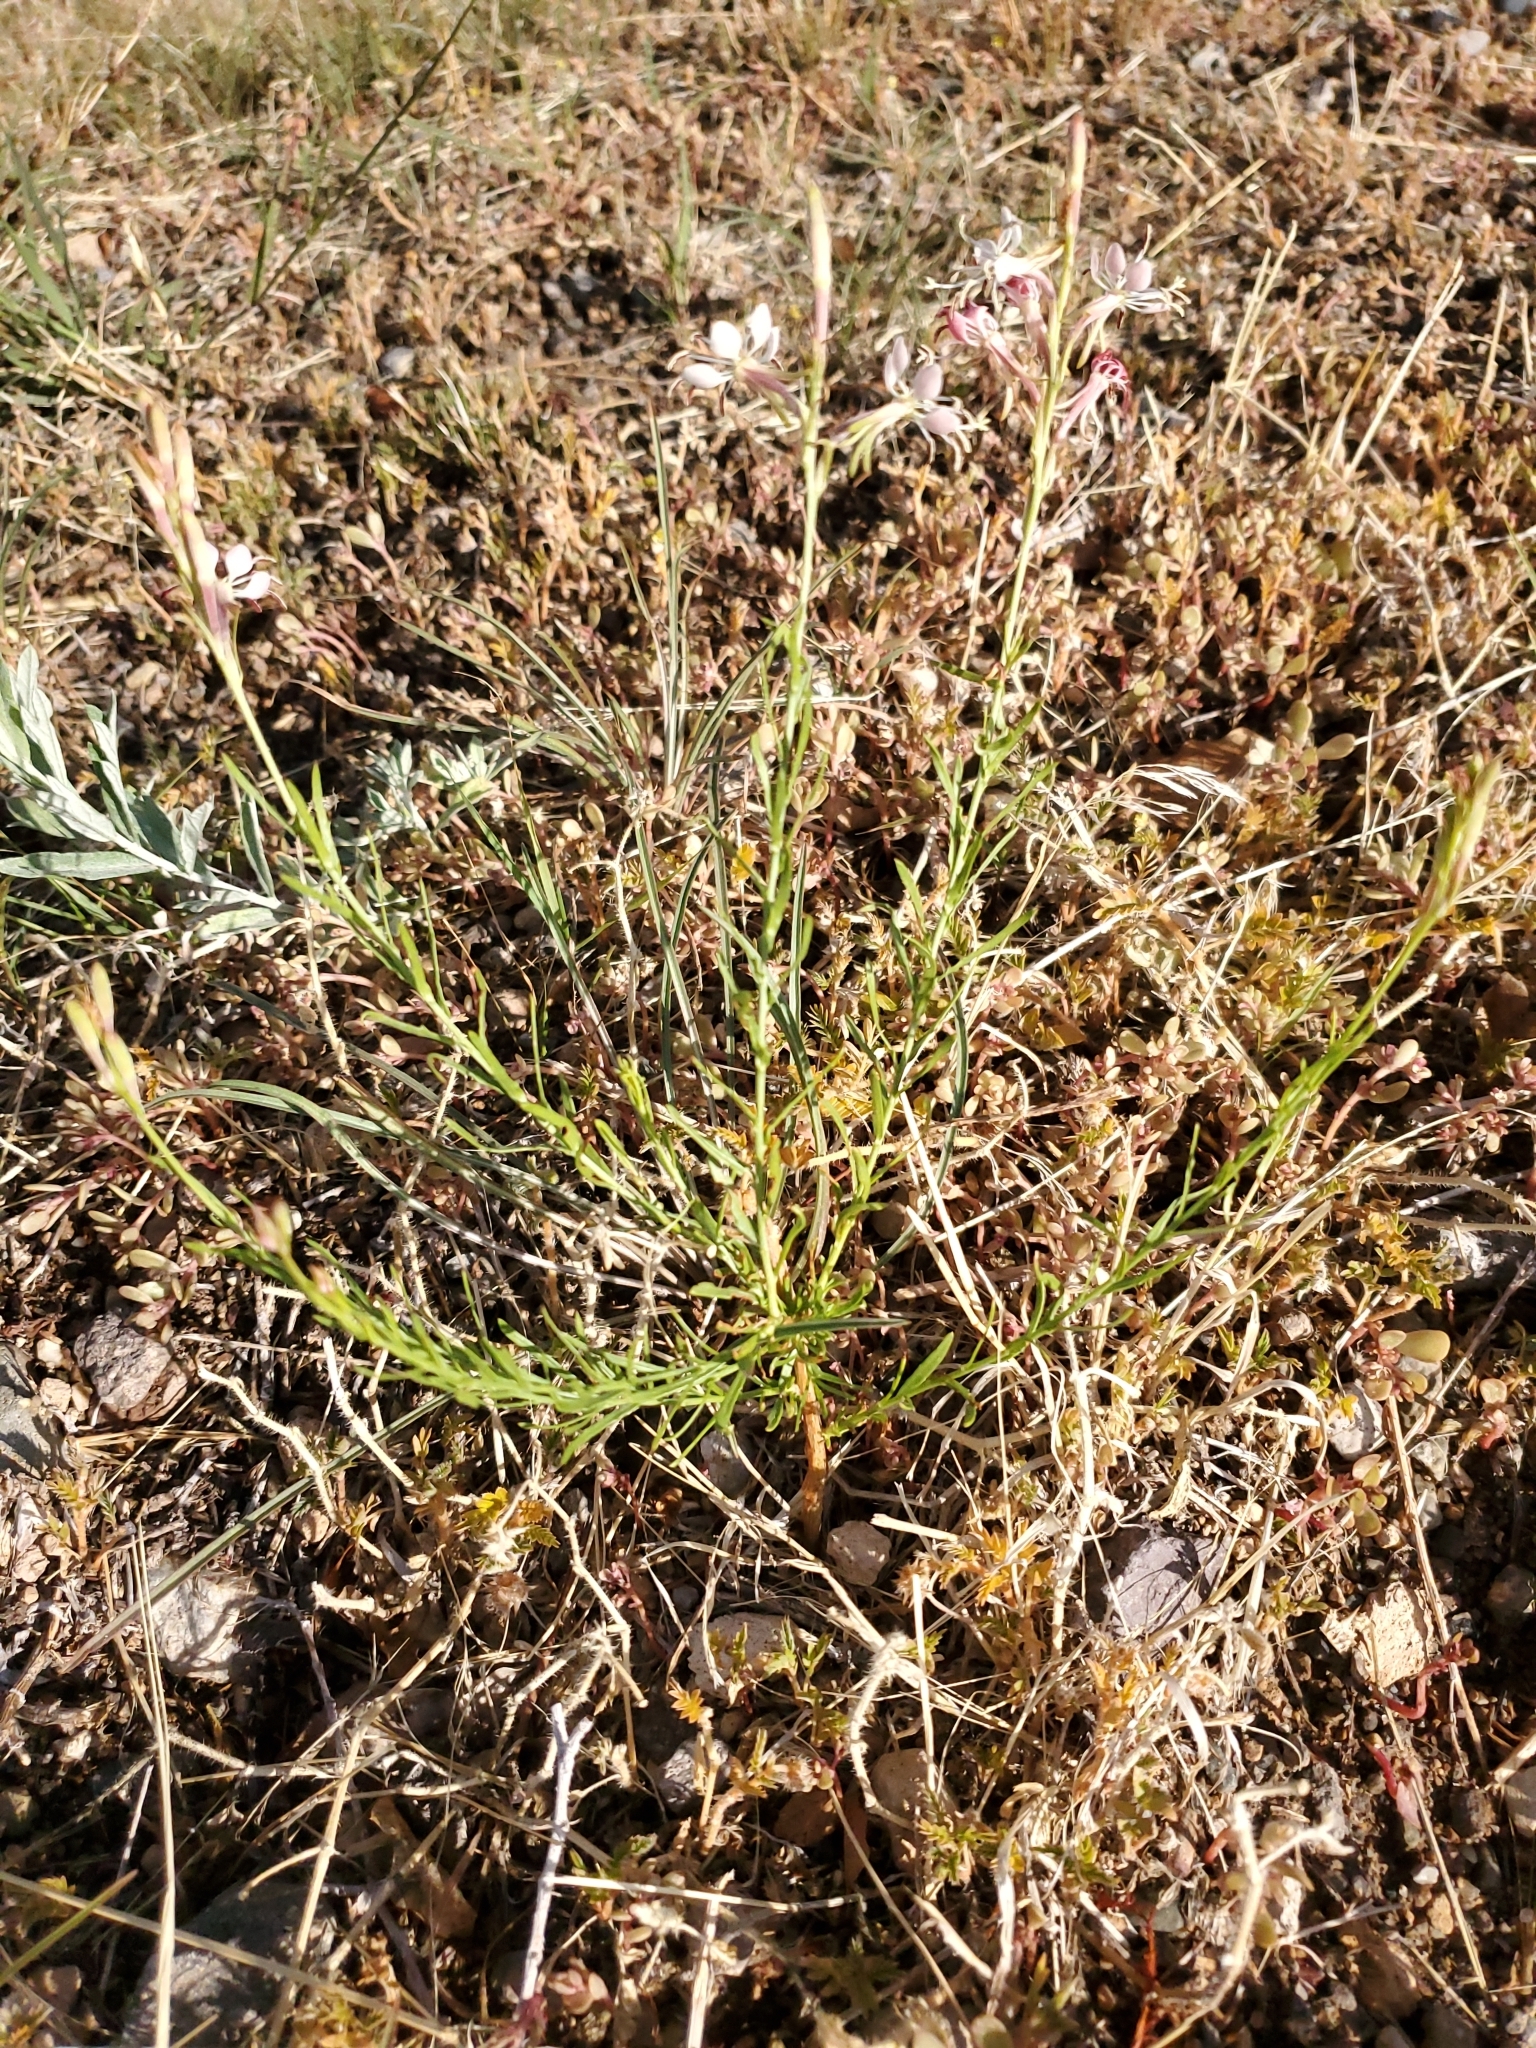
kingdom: Plantae
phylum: Tracheophyta
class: Magnoliopsida
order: Myrtales
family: Onagraceae
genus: Oenothera
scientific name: Oenothera suffrutescens
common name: Scarlet beeblossom
